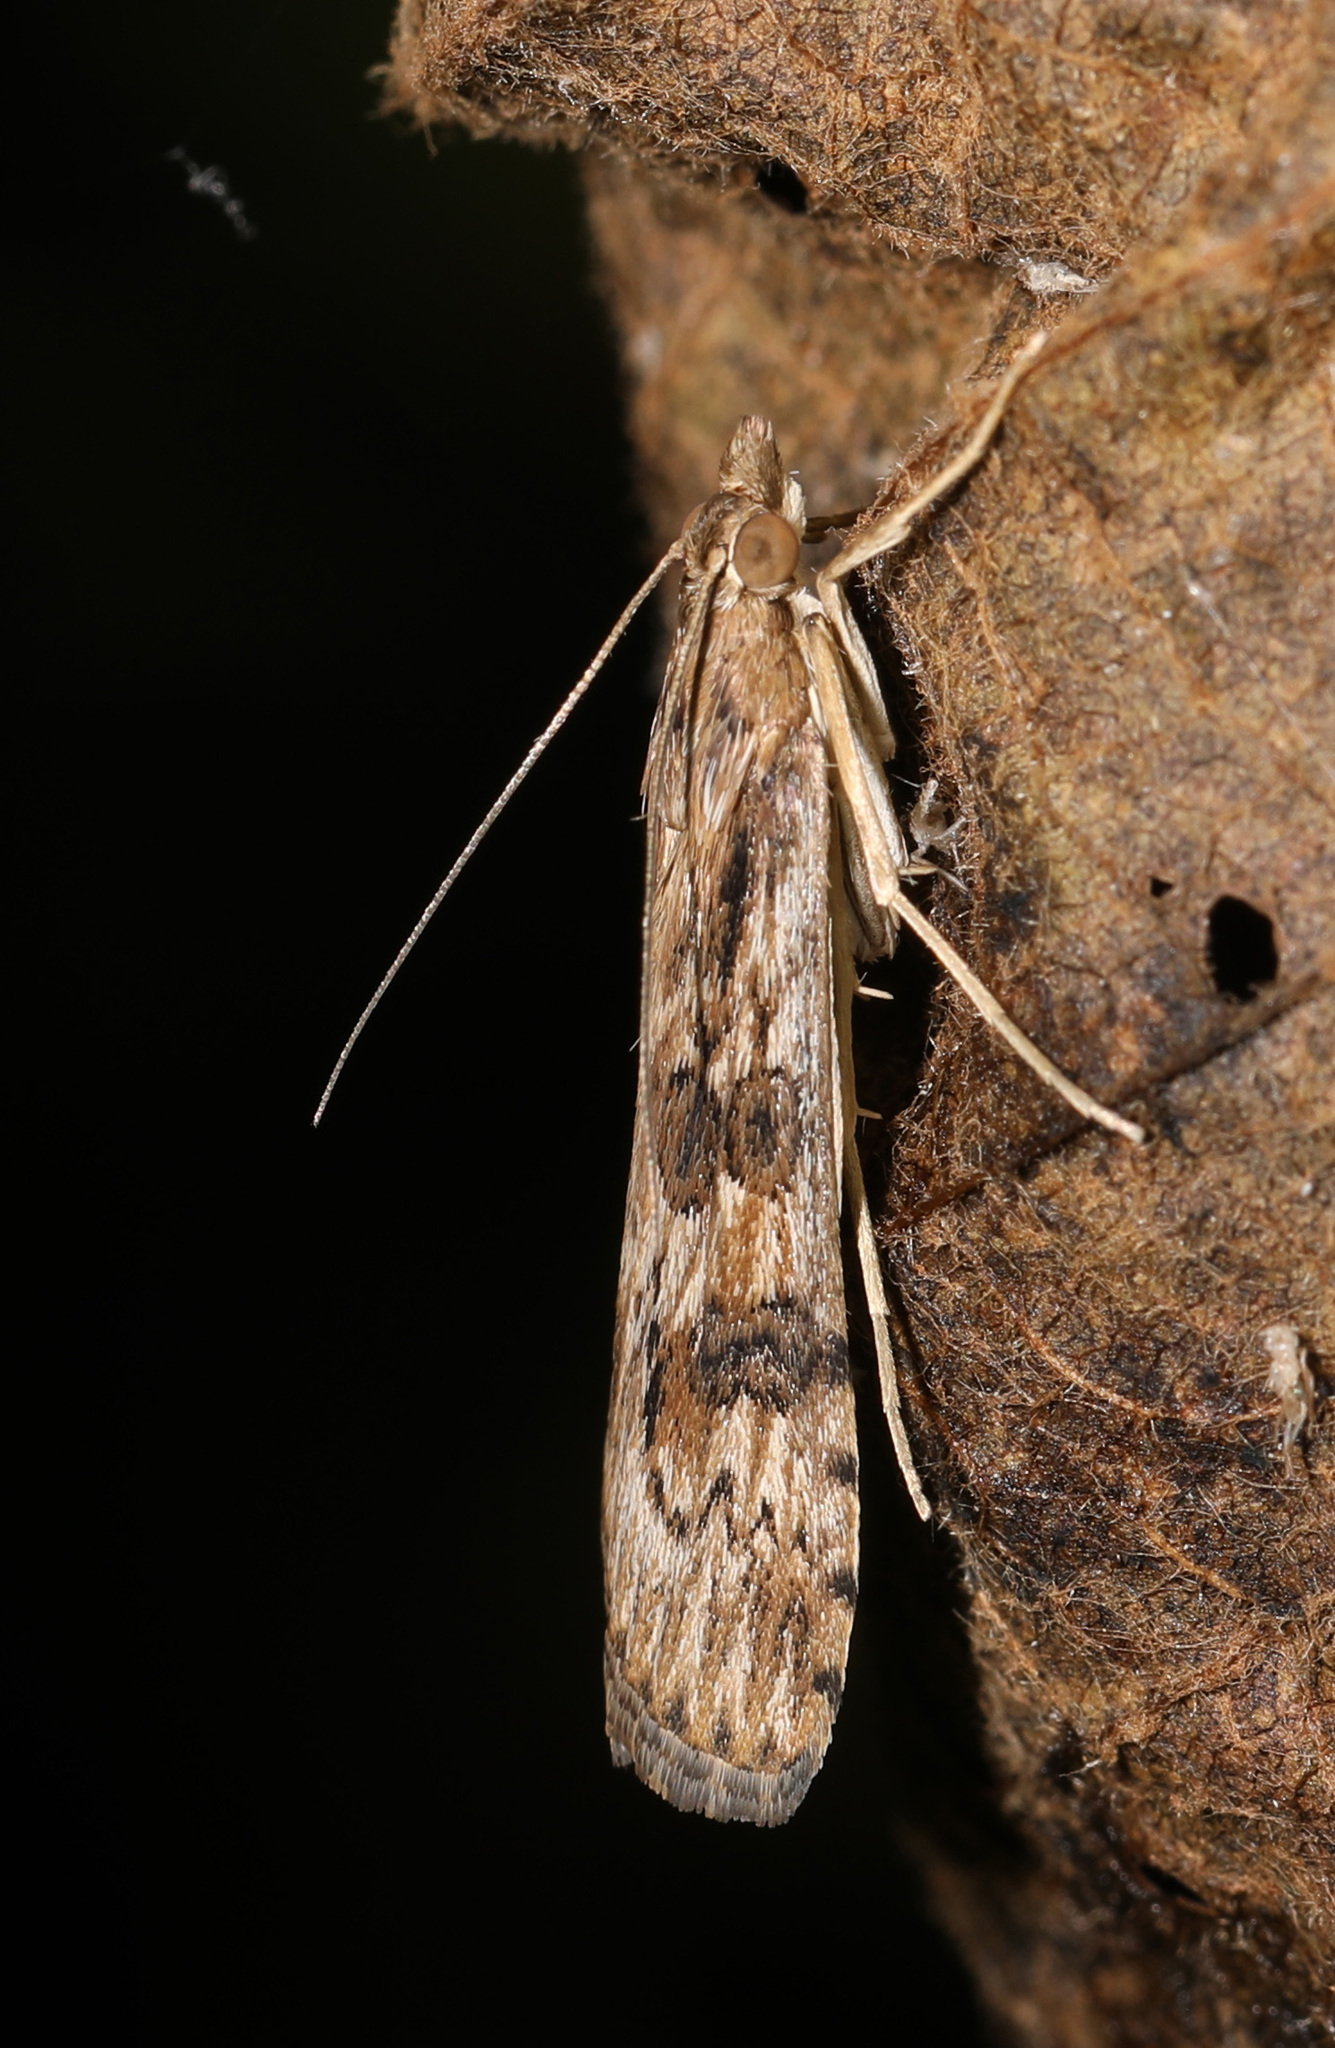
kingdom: Animalia
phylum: Arthropoda
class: Insecta
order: Lepidoptera
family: Crambidae
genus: Nomophila
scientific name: Nomophila nearctica
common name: American rush veneer
